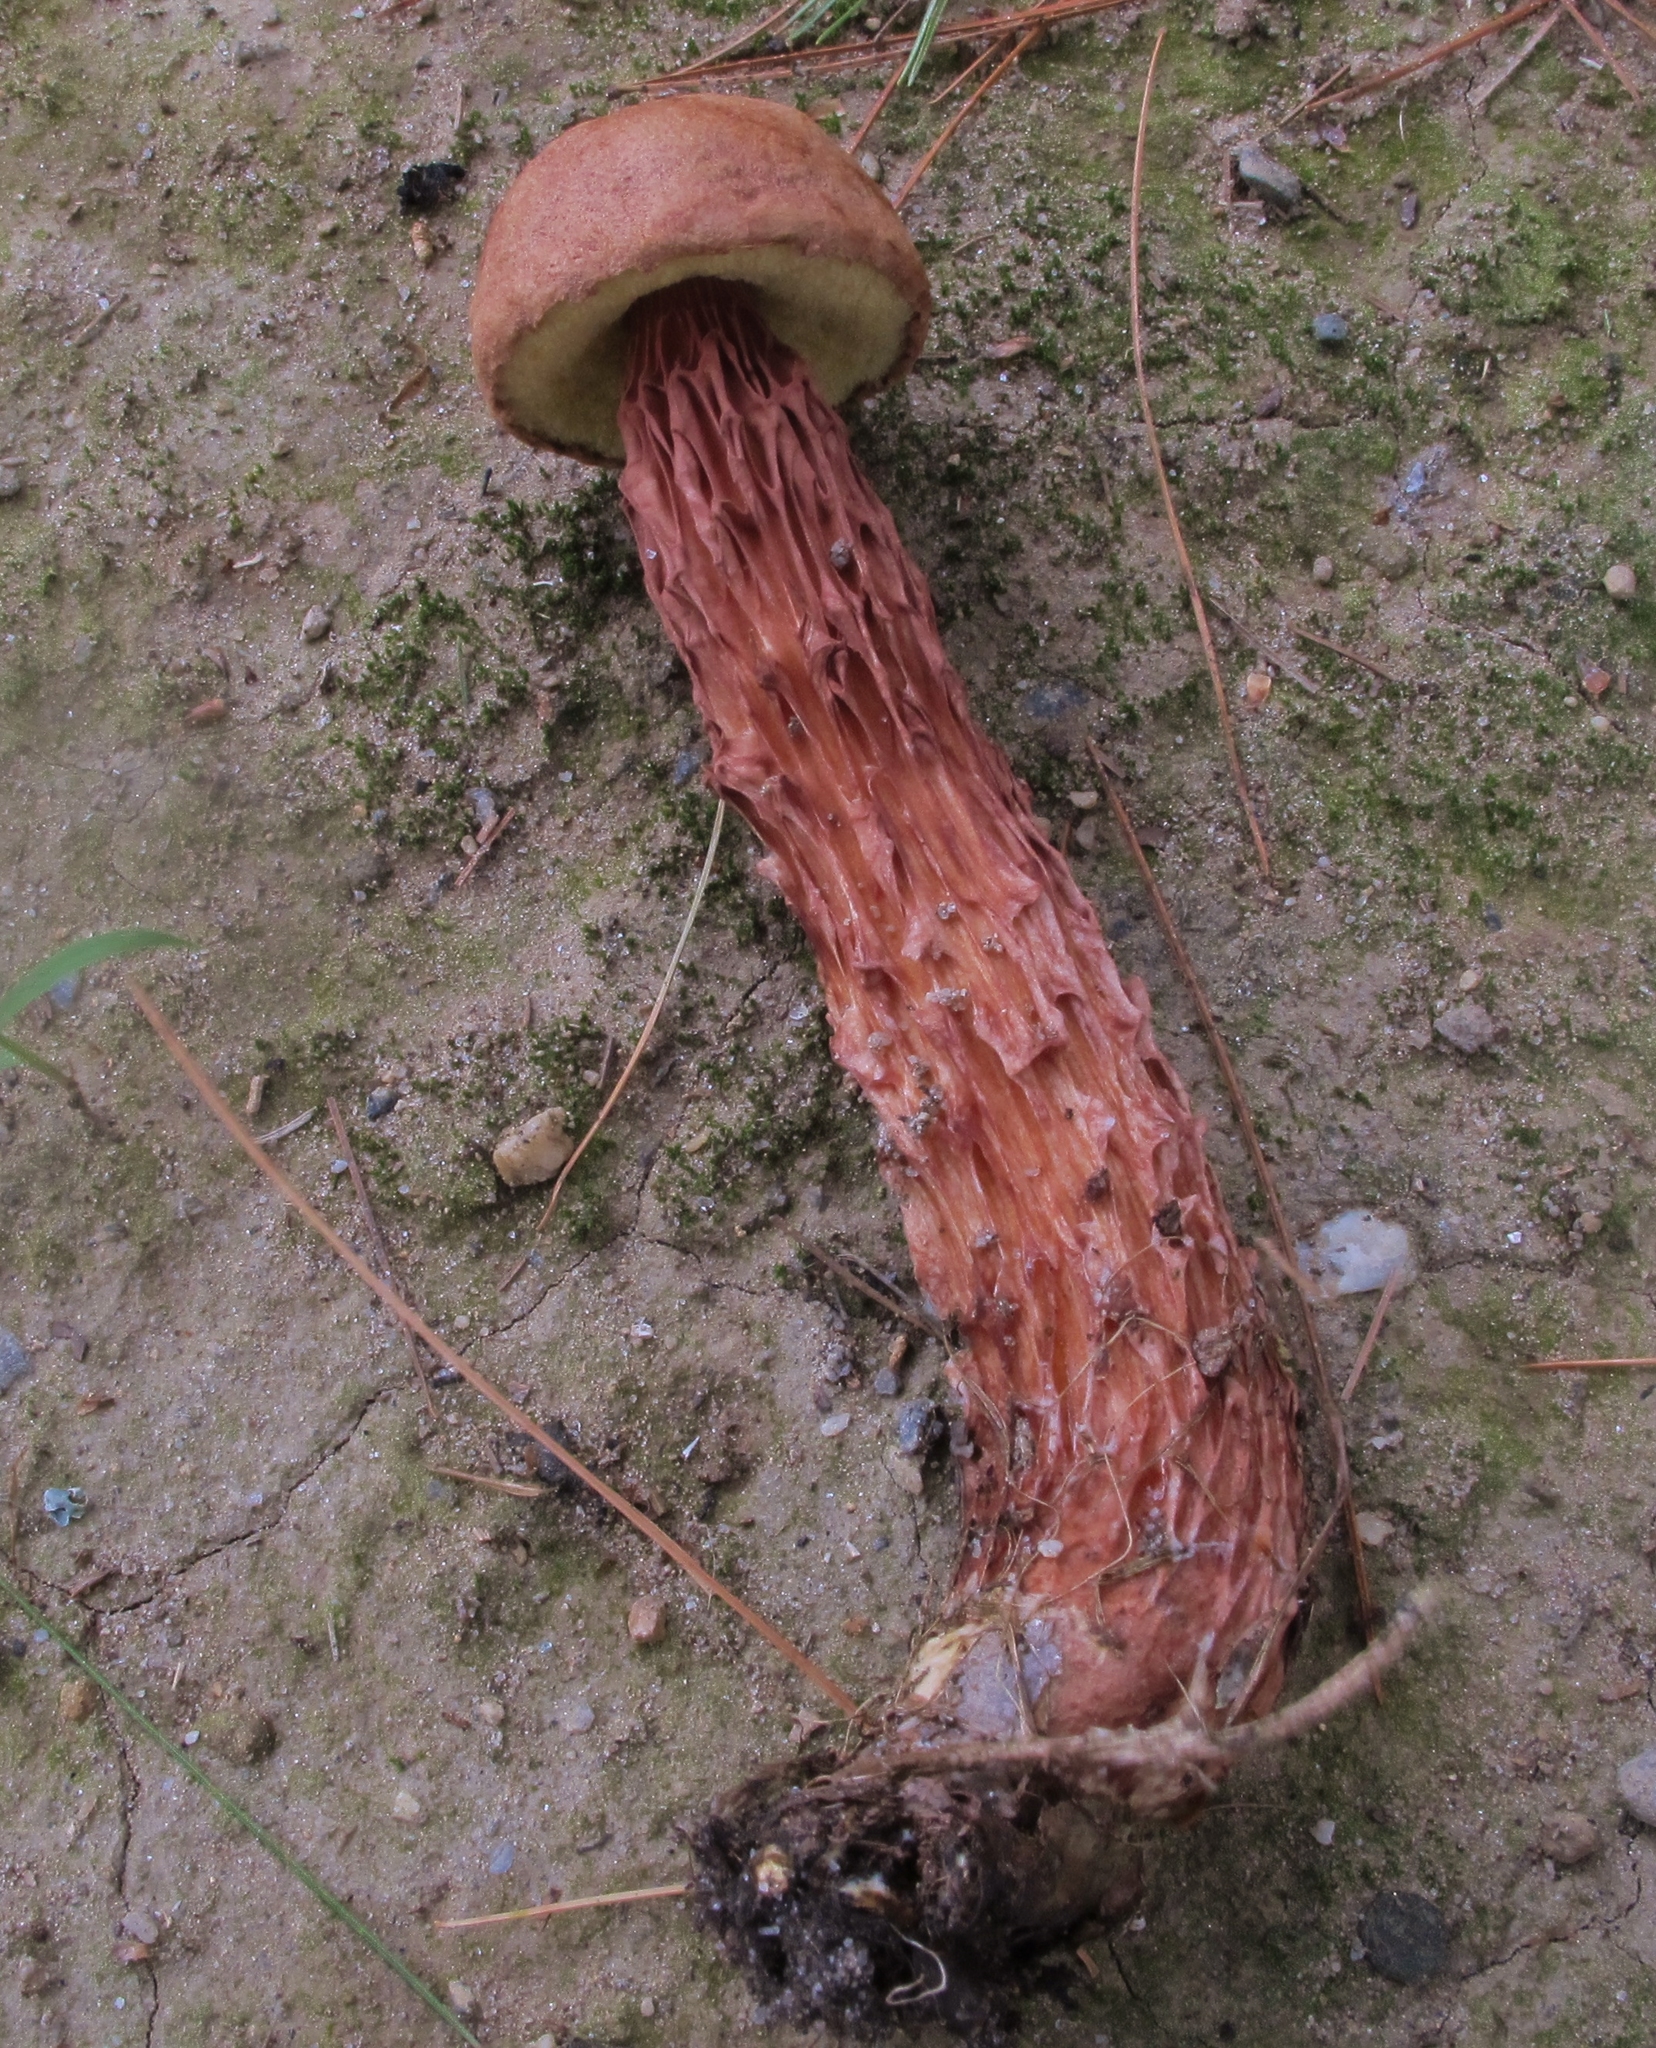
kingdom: Fungi
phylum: Basidiomycota
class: Agaricomycetes
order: Boletales
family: Boletaceae
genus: Aureoboletus
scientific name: Aureoboletus russellii
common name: Russell's bolete
